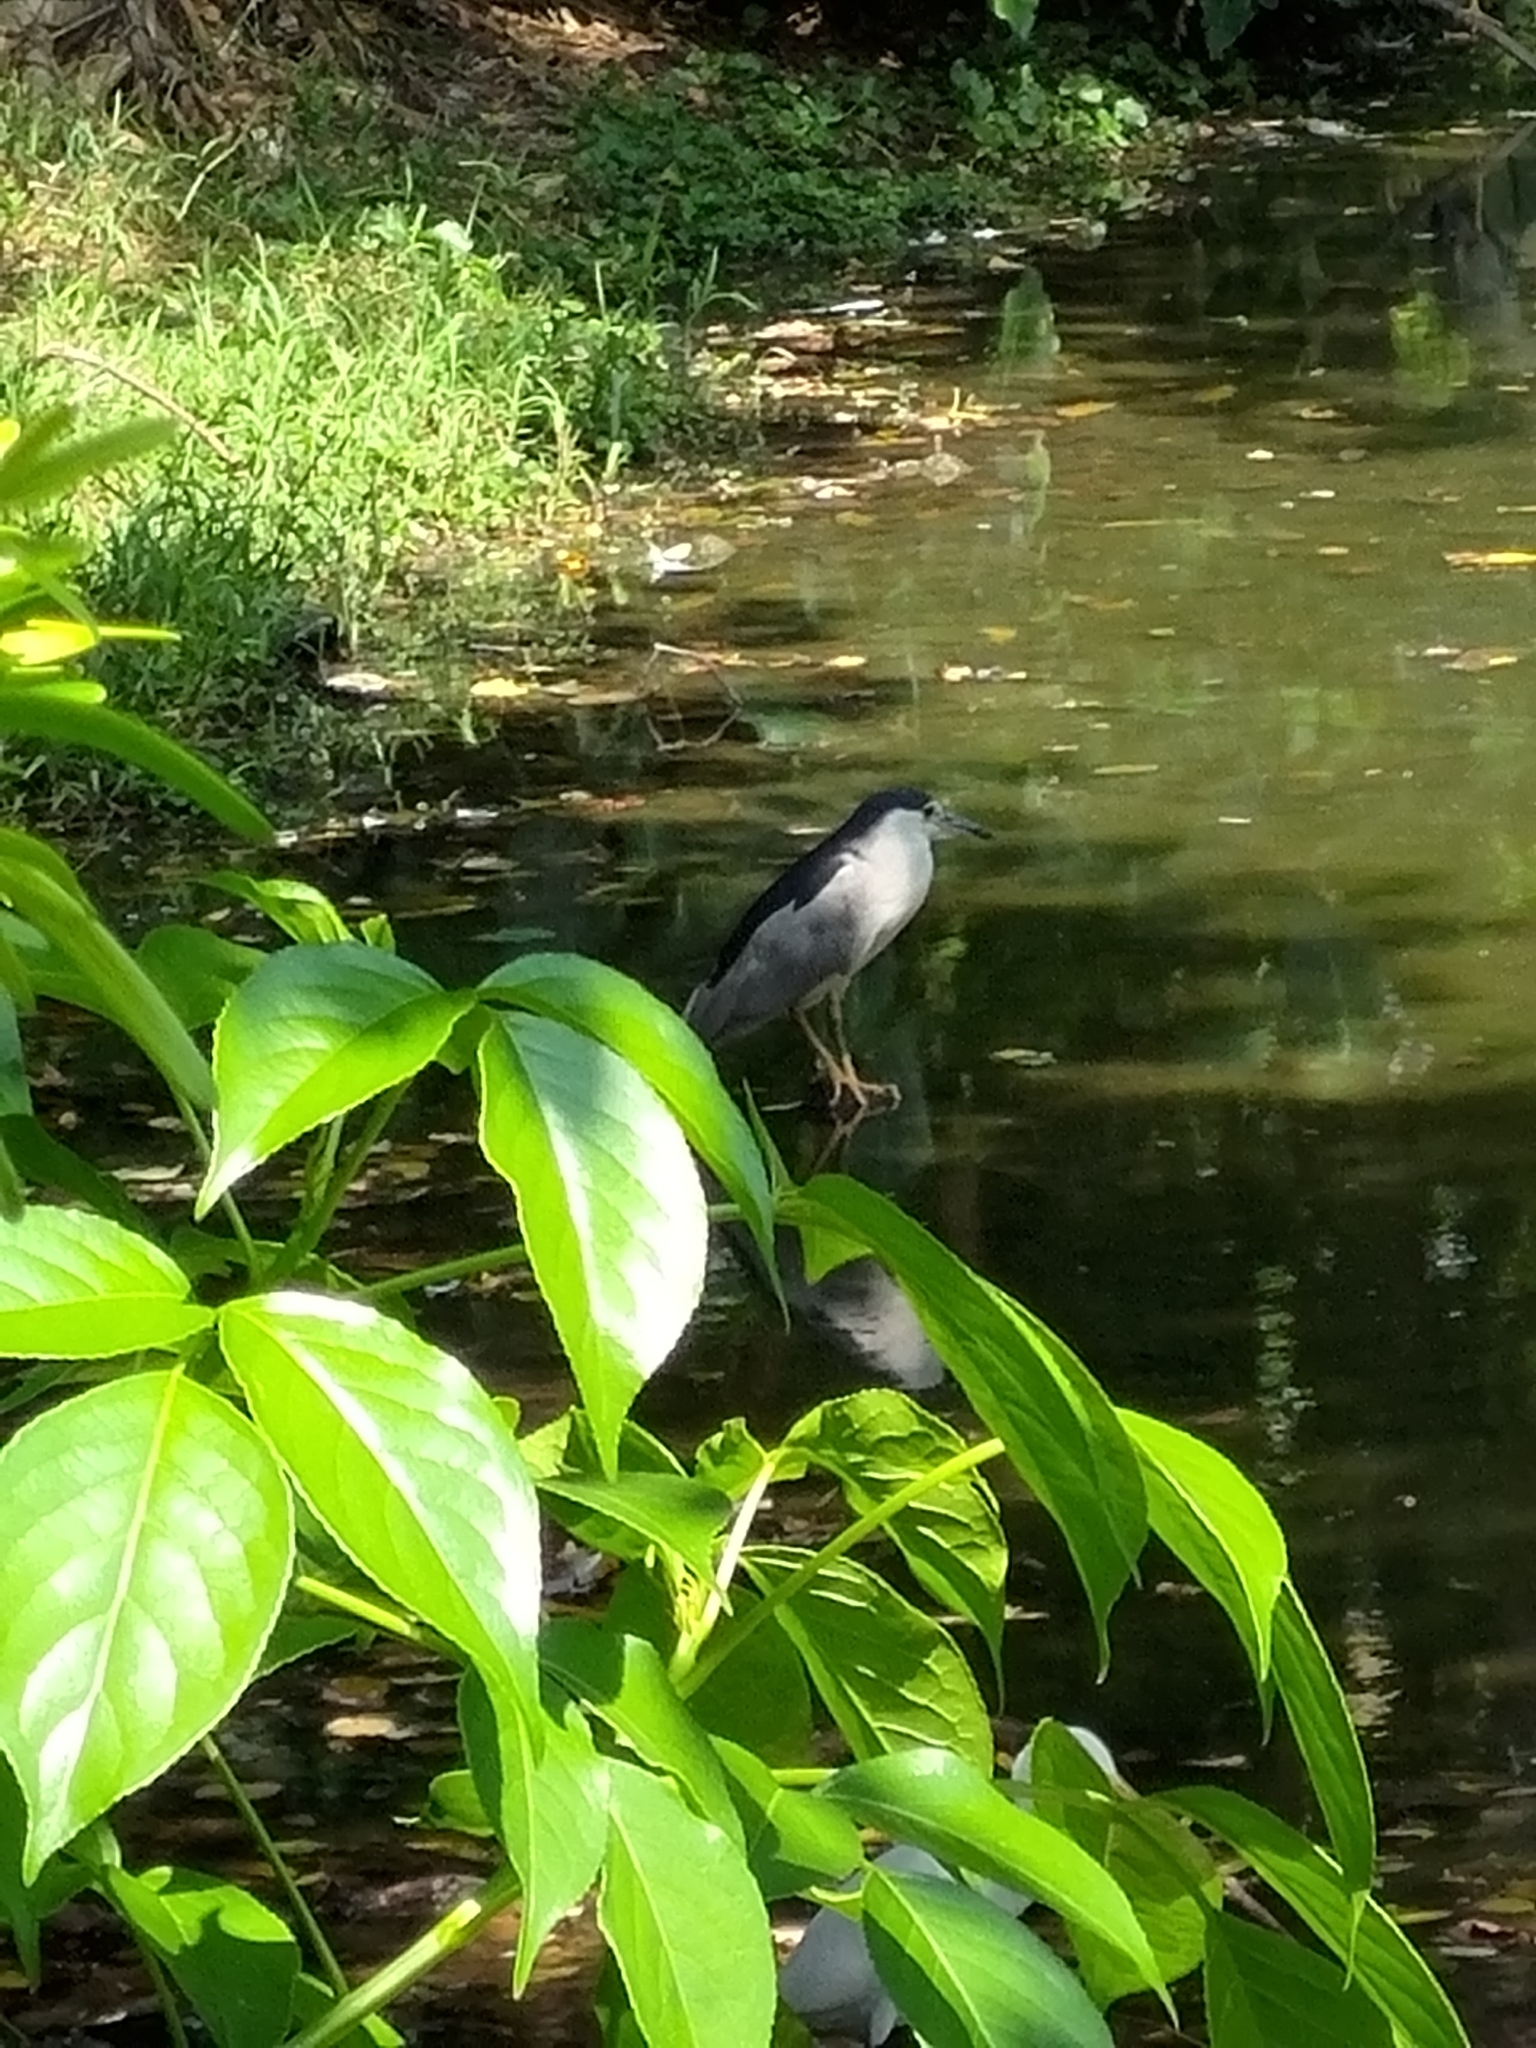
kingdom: Animalia
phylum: Chordata
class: Aves
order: Pelecaniformes
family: Ardeidae
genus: Nycticorax
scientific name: Nycticorax nycticorax
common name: Black-crowned night heron
